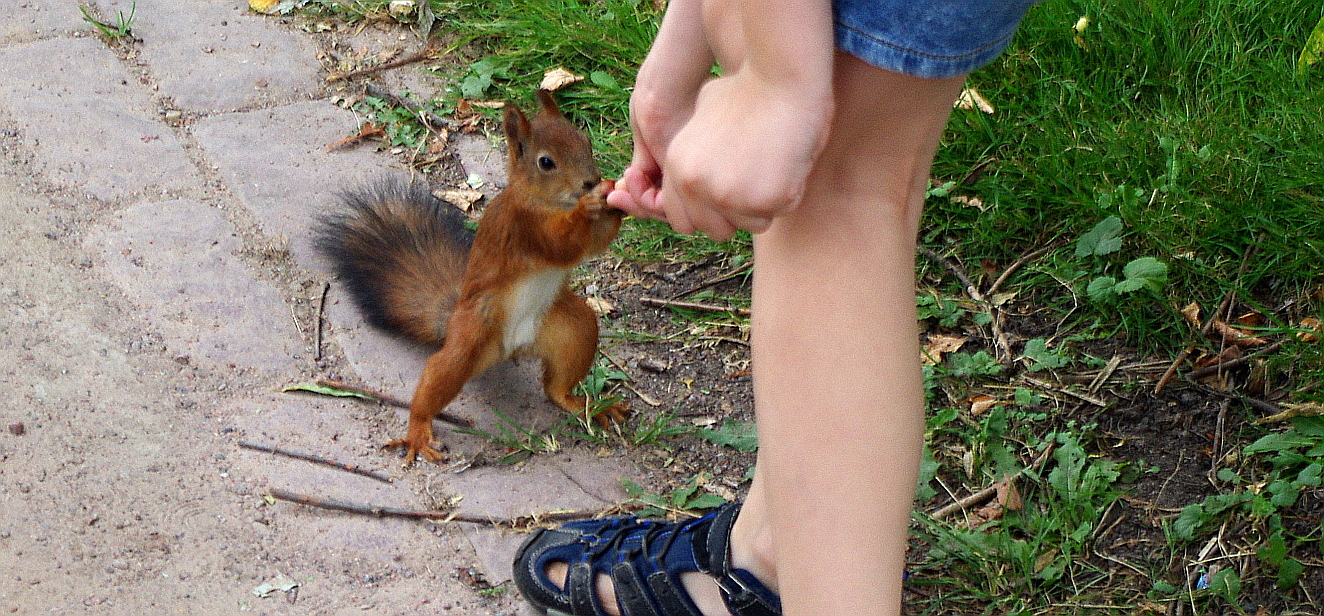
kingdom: Animalia
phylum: Chordata
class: Mammalia
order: Rodentia
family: Sciuridae
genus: Sciurus
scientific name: Sciurus vulgaris
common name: Eurasian red squirrel
